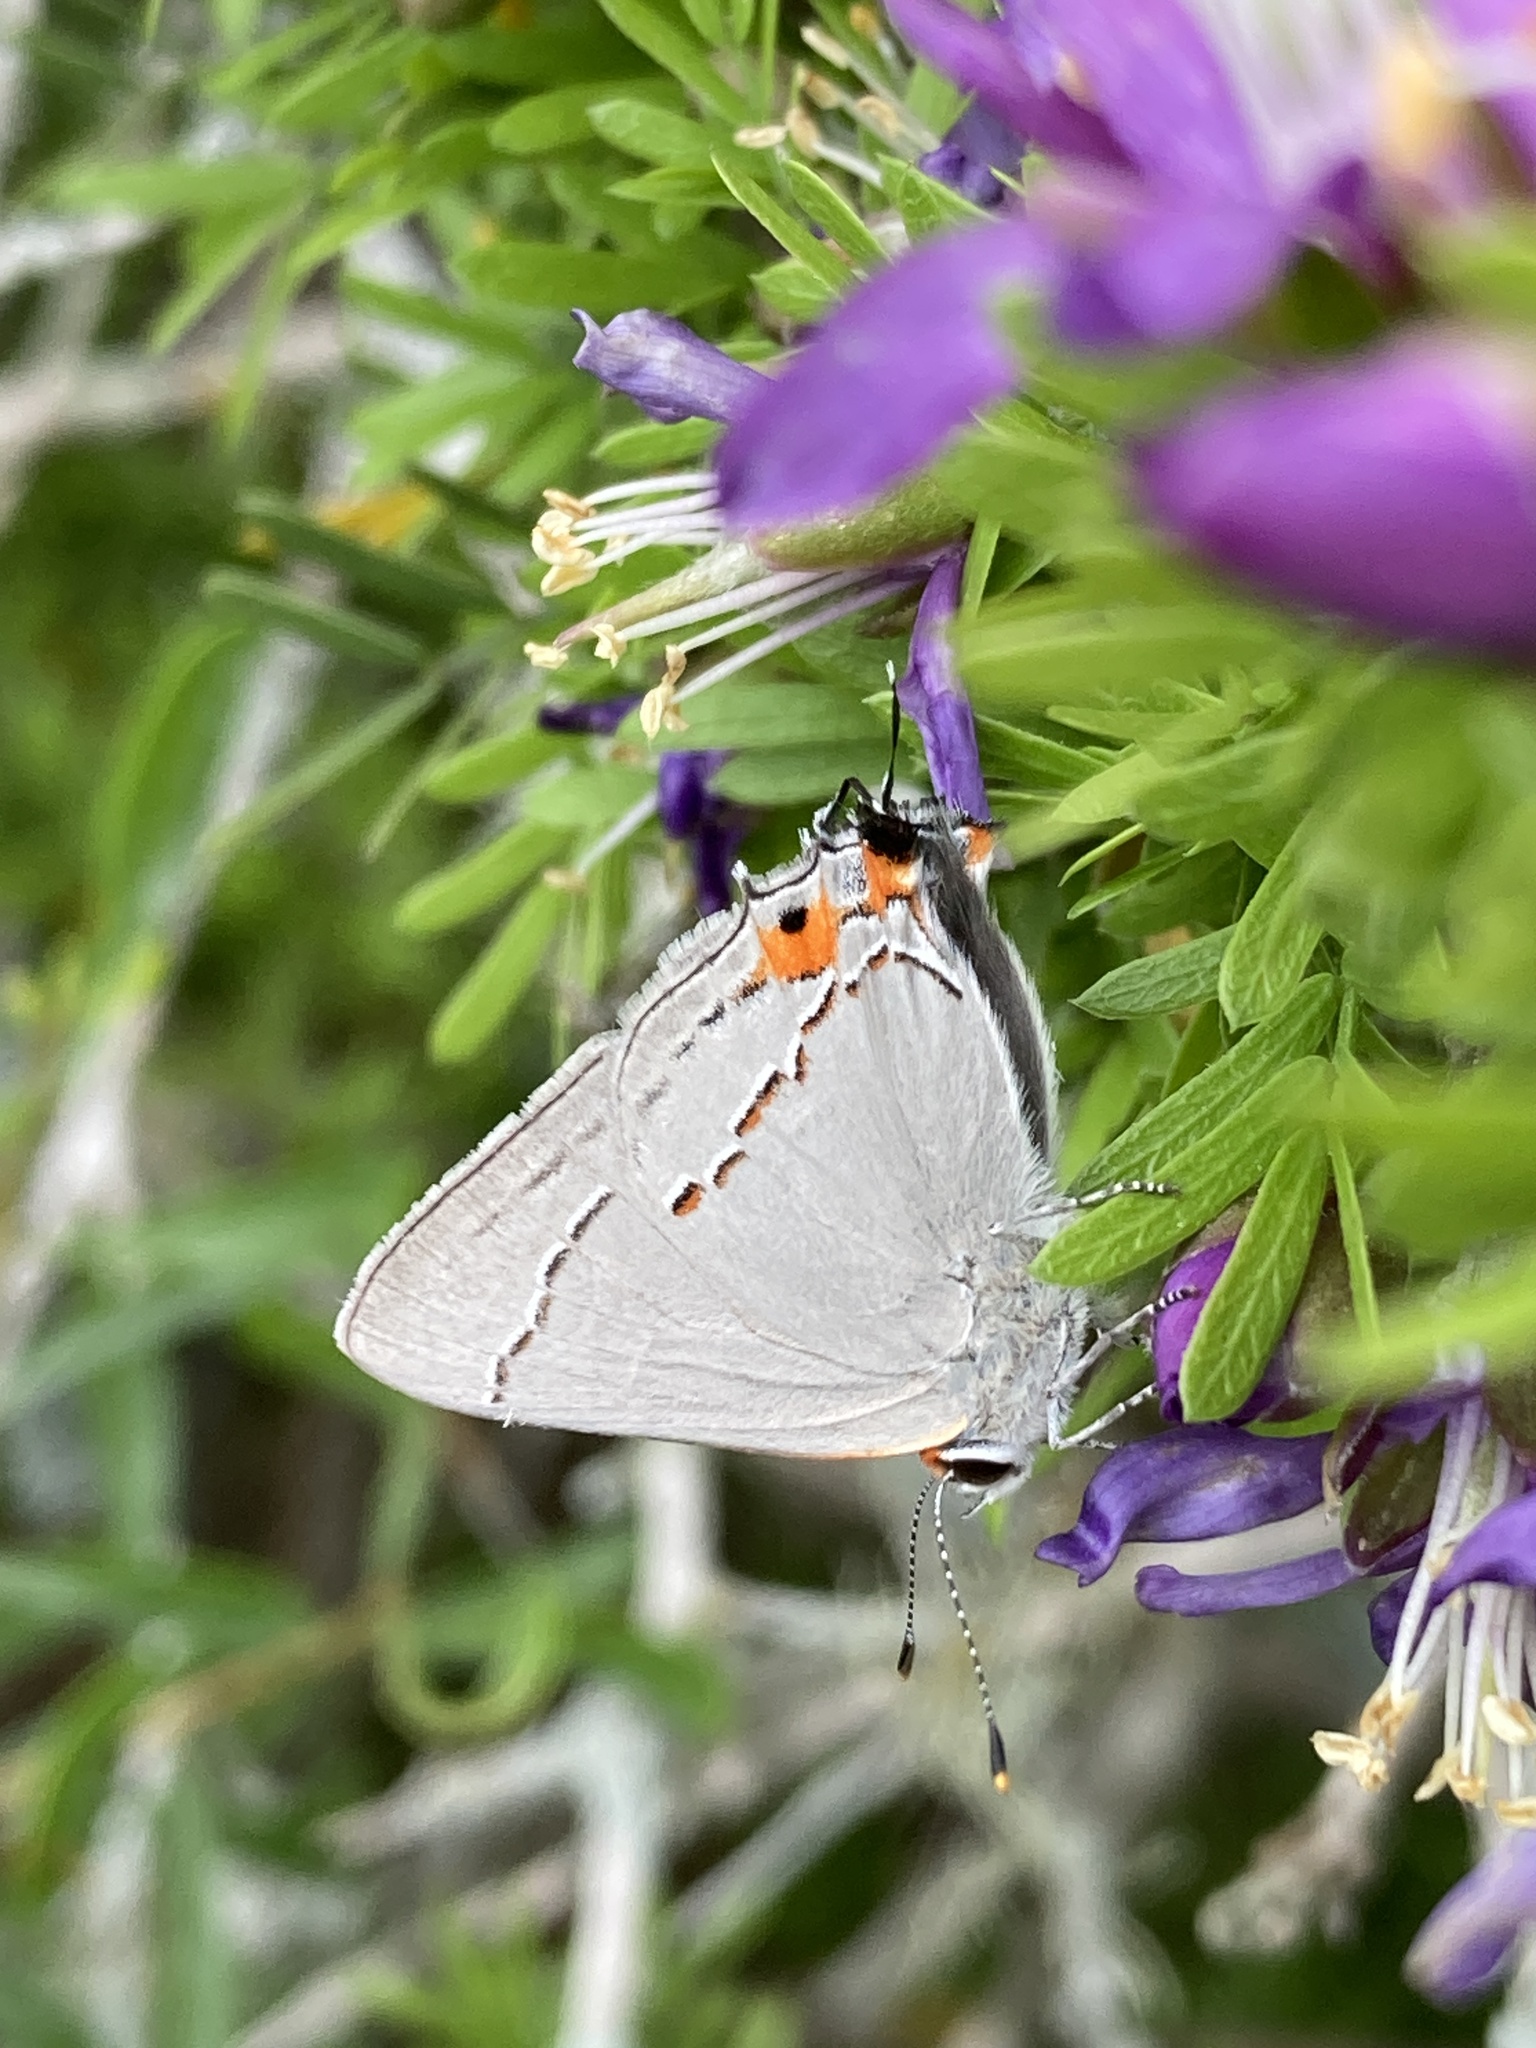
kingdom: Animalia
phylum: Arthropoda
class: Insecta
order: Lepidoptera
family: Lycaenidae
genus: Strymon
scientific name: Strymon melinus
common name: Gray hairstreak
